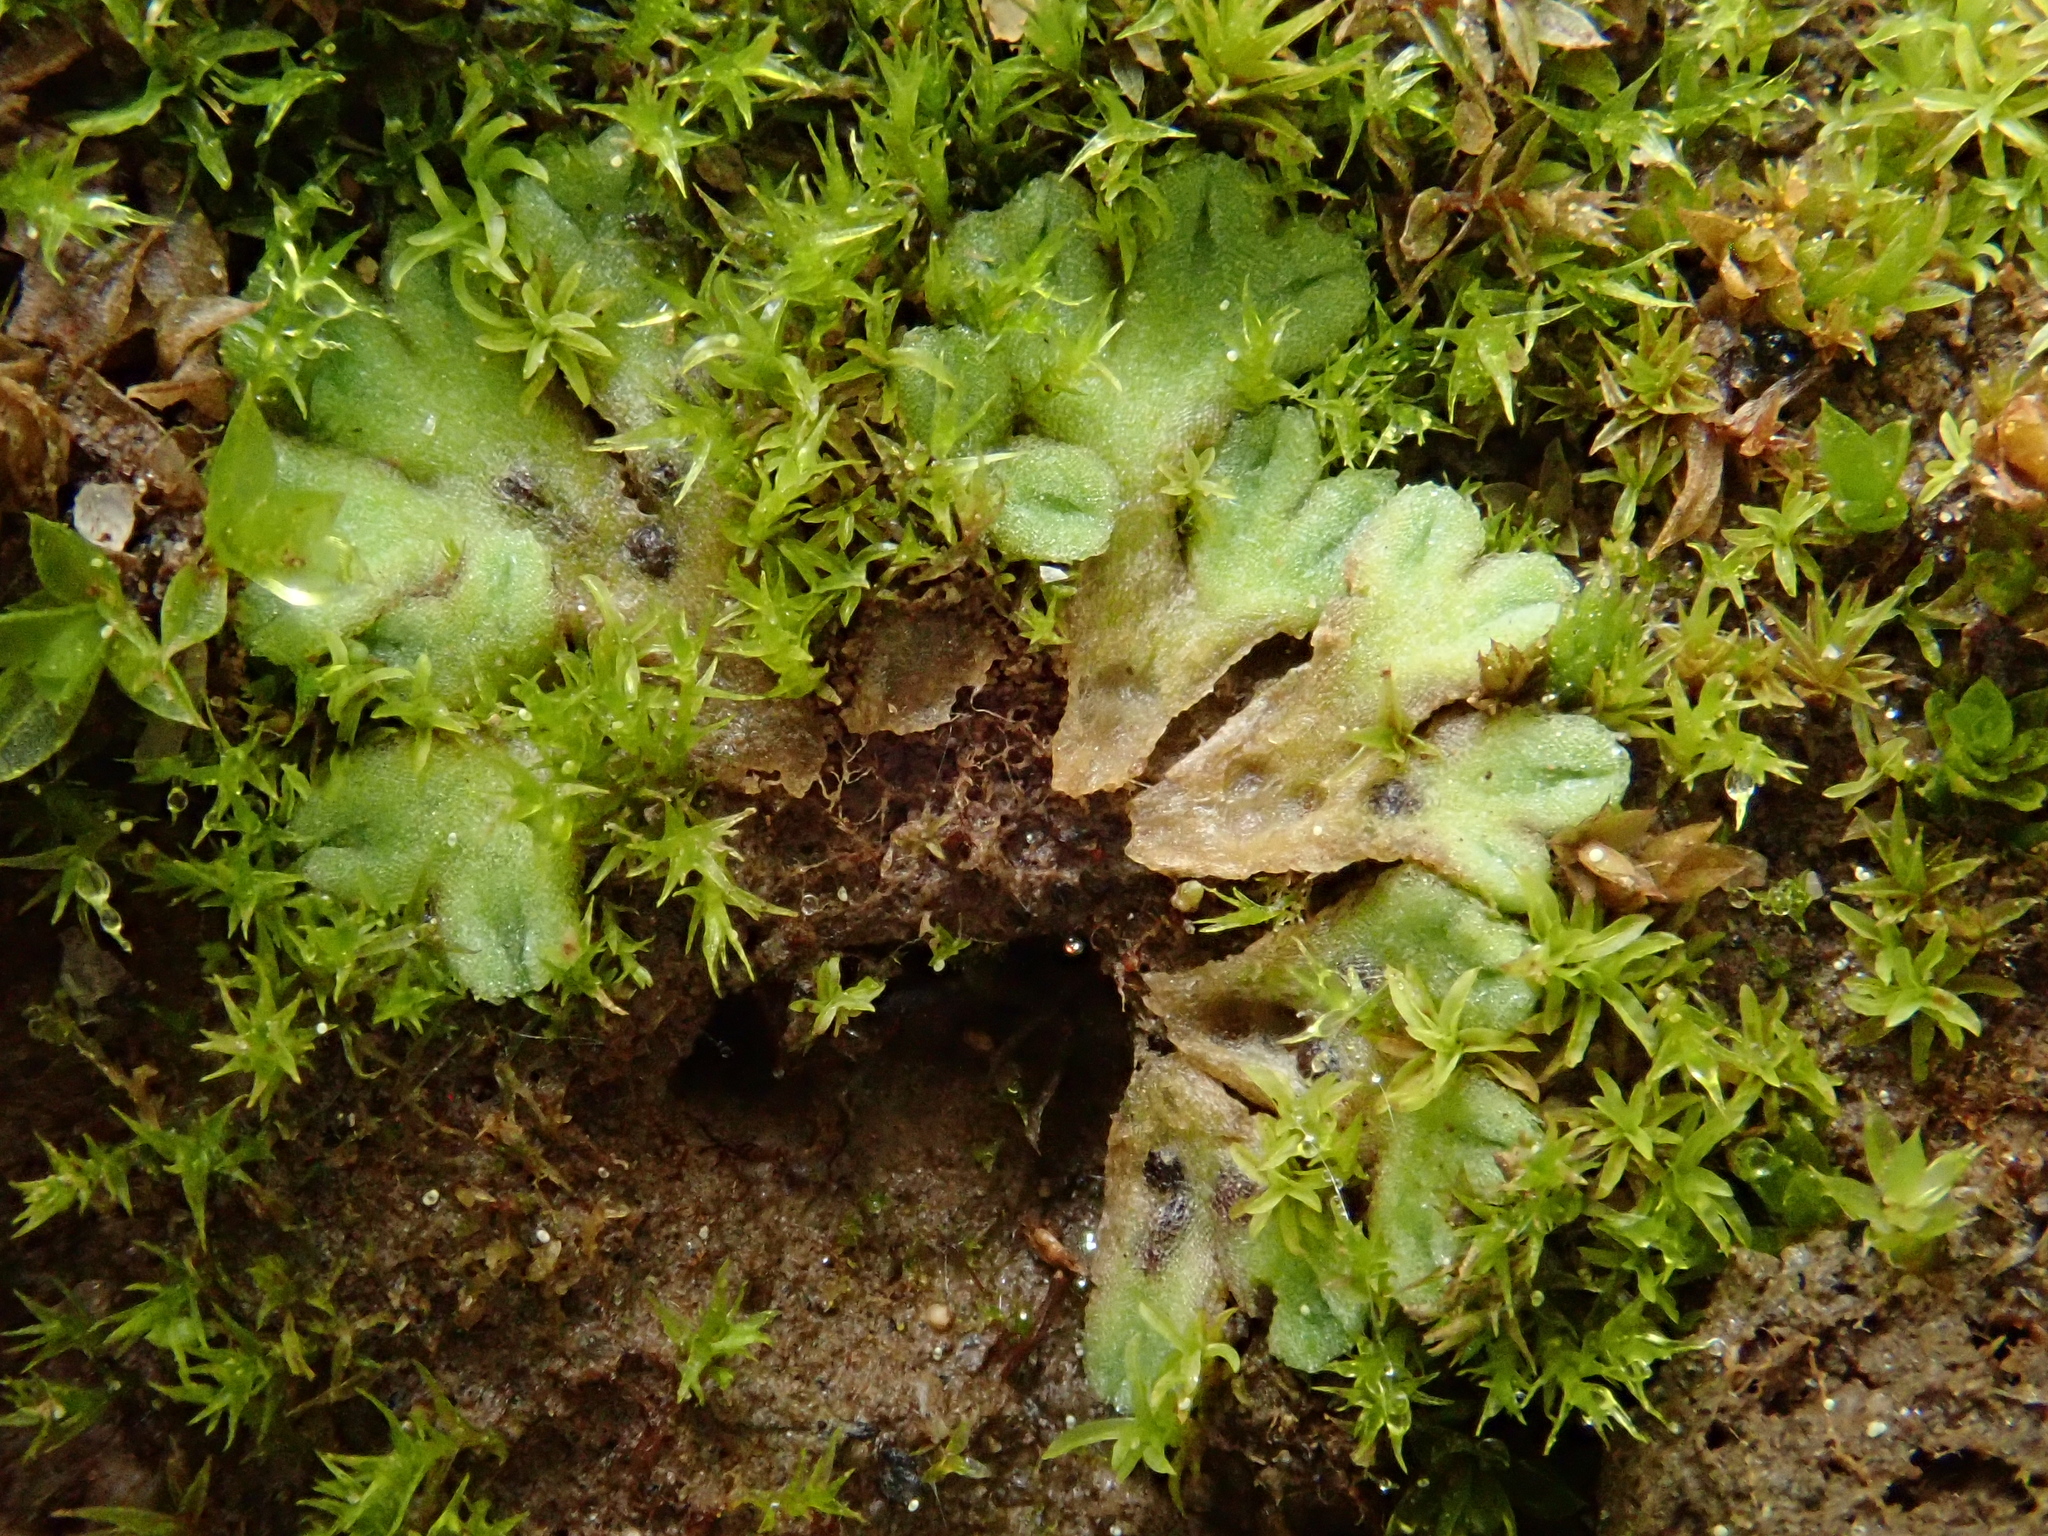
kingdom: Plantae
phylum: Marchantiophyta
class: Marchantiopsida
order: Marchantiales
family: Ricciaceae
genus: Riccia
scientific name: Riccia bifurca
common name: Lizard crystalwort
